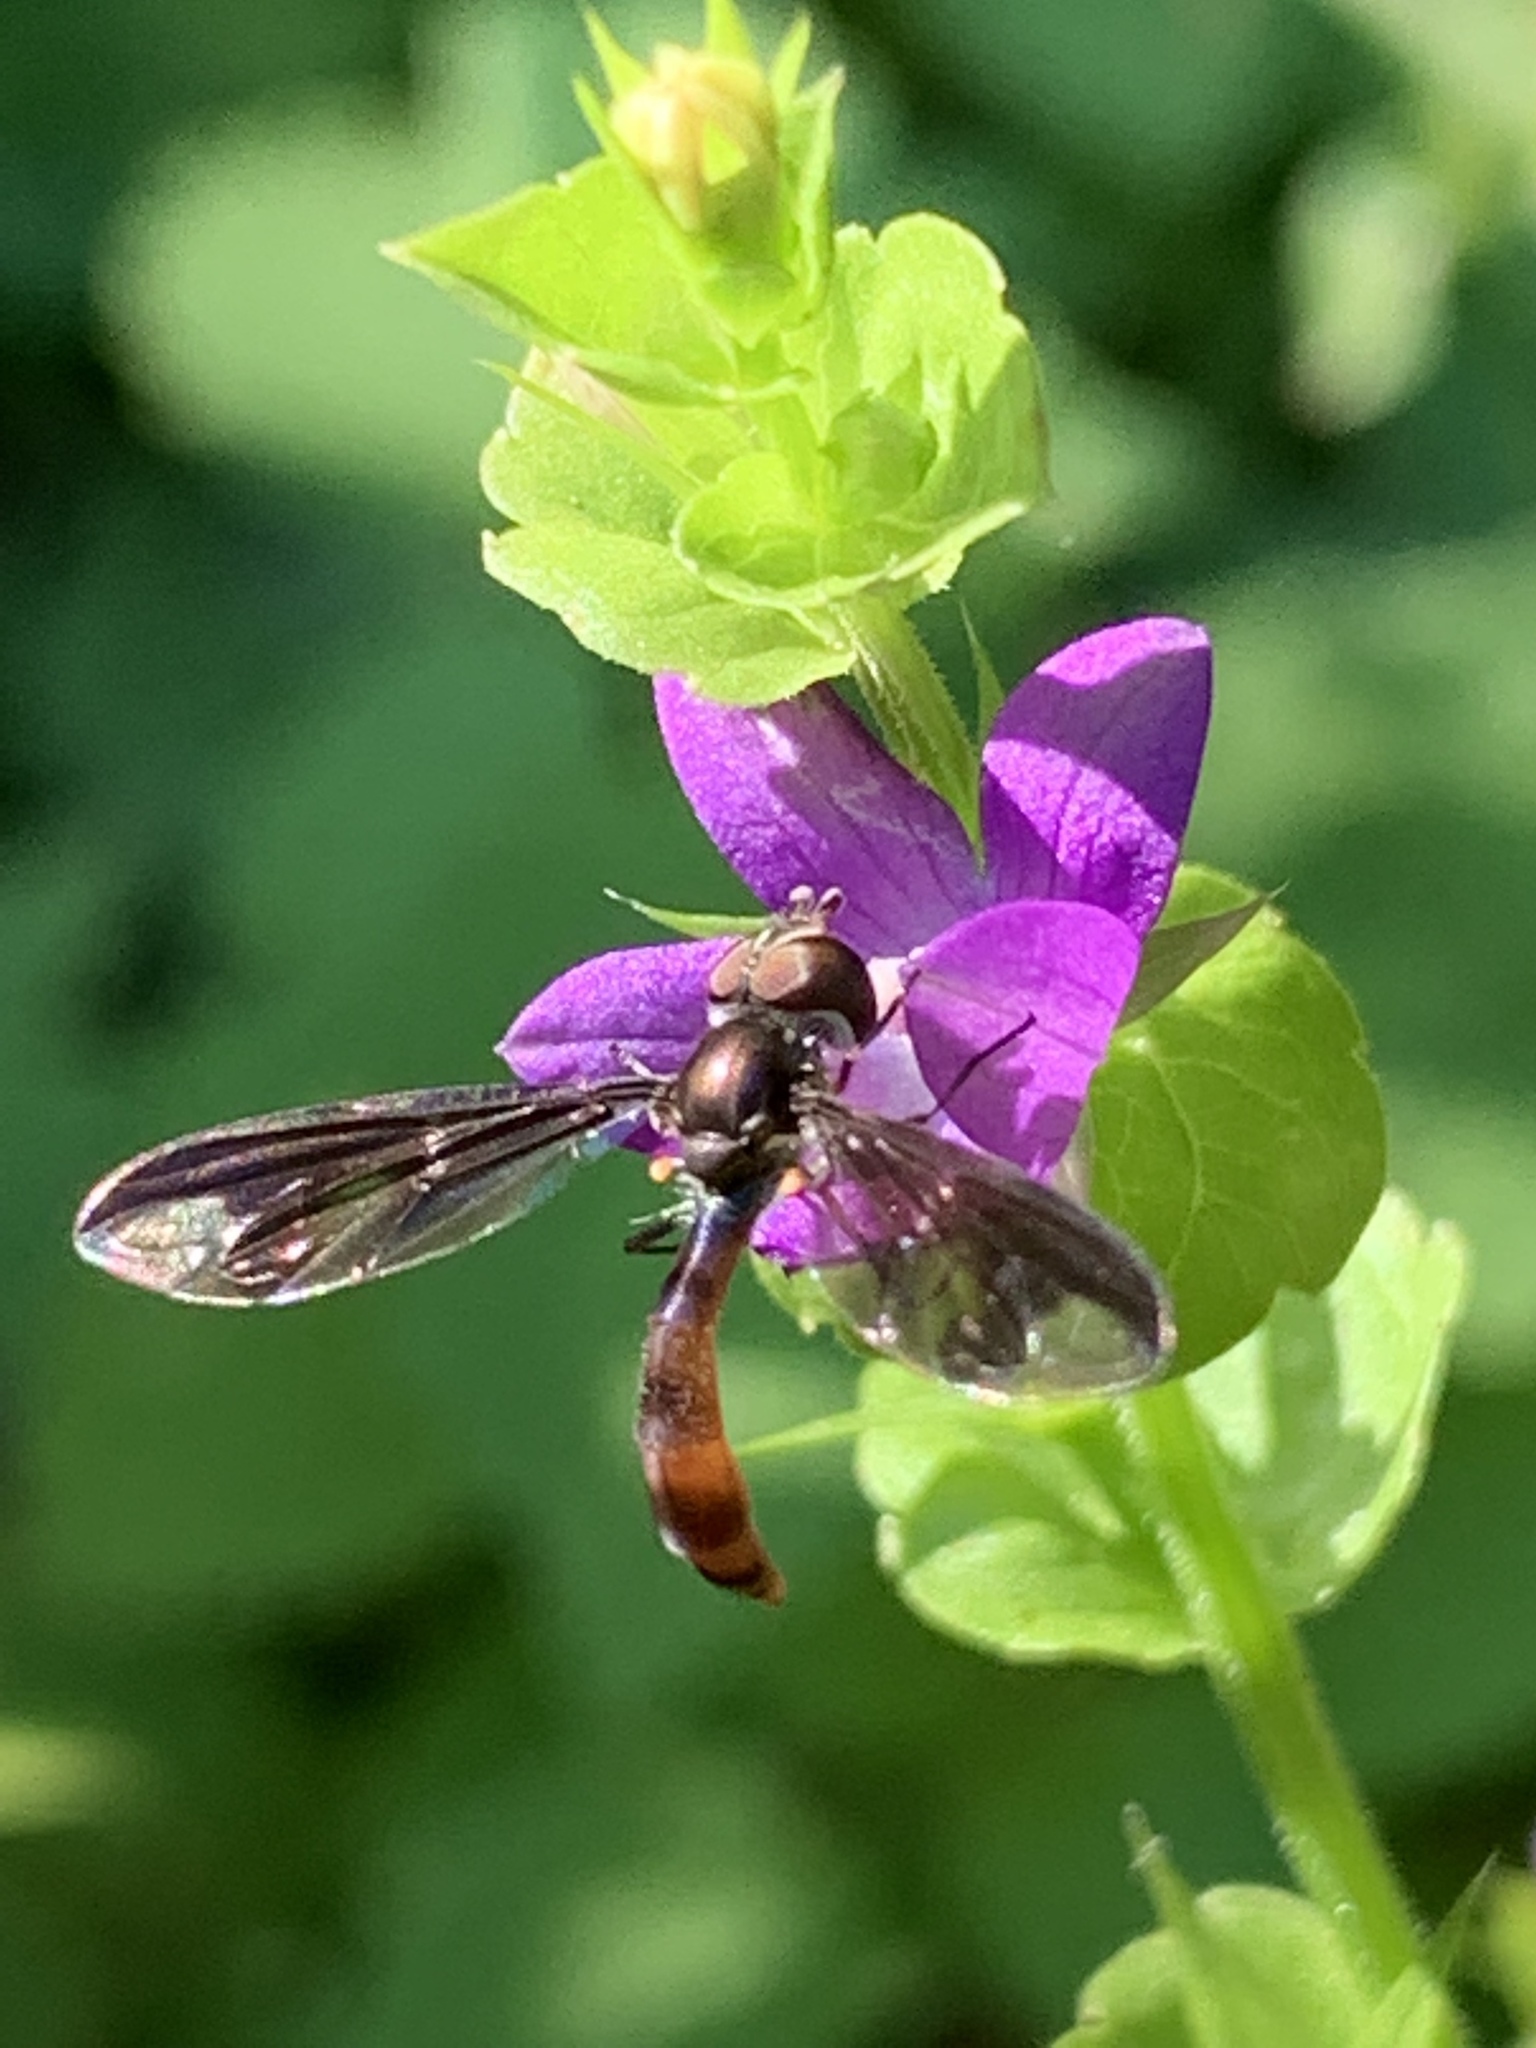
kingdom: Animalia
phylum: Arthropoda
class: Insecta
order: Diptera
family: Syrphidae
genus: Ocyptamus
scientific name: Ocyptamus fuscipennis
